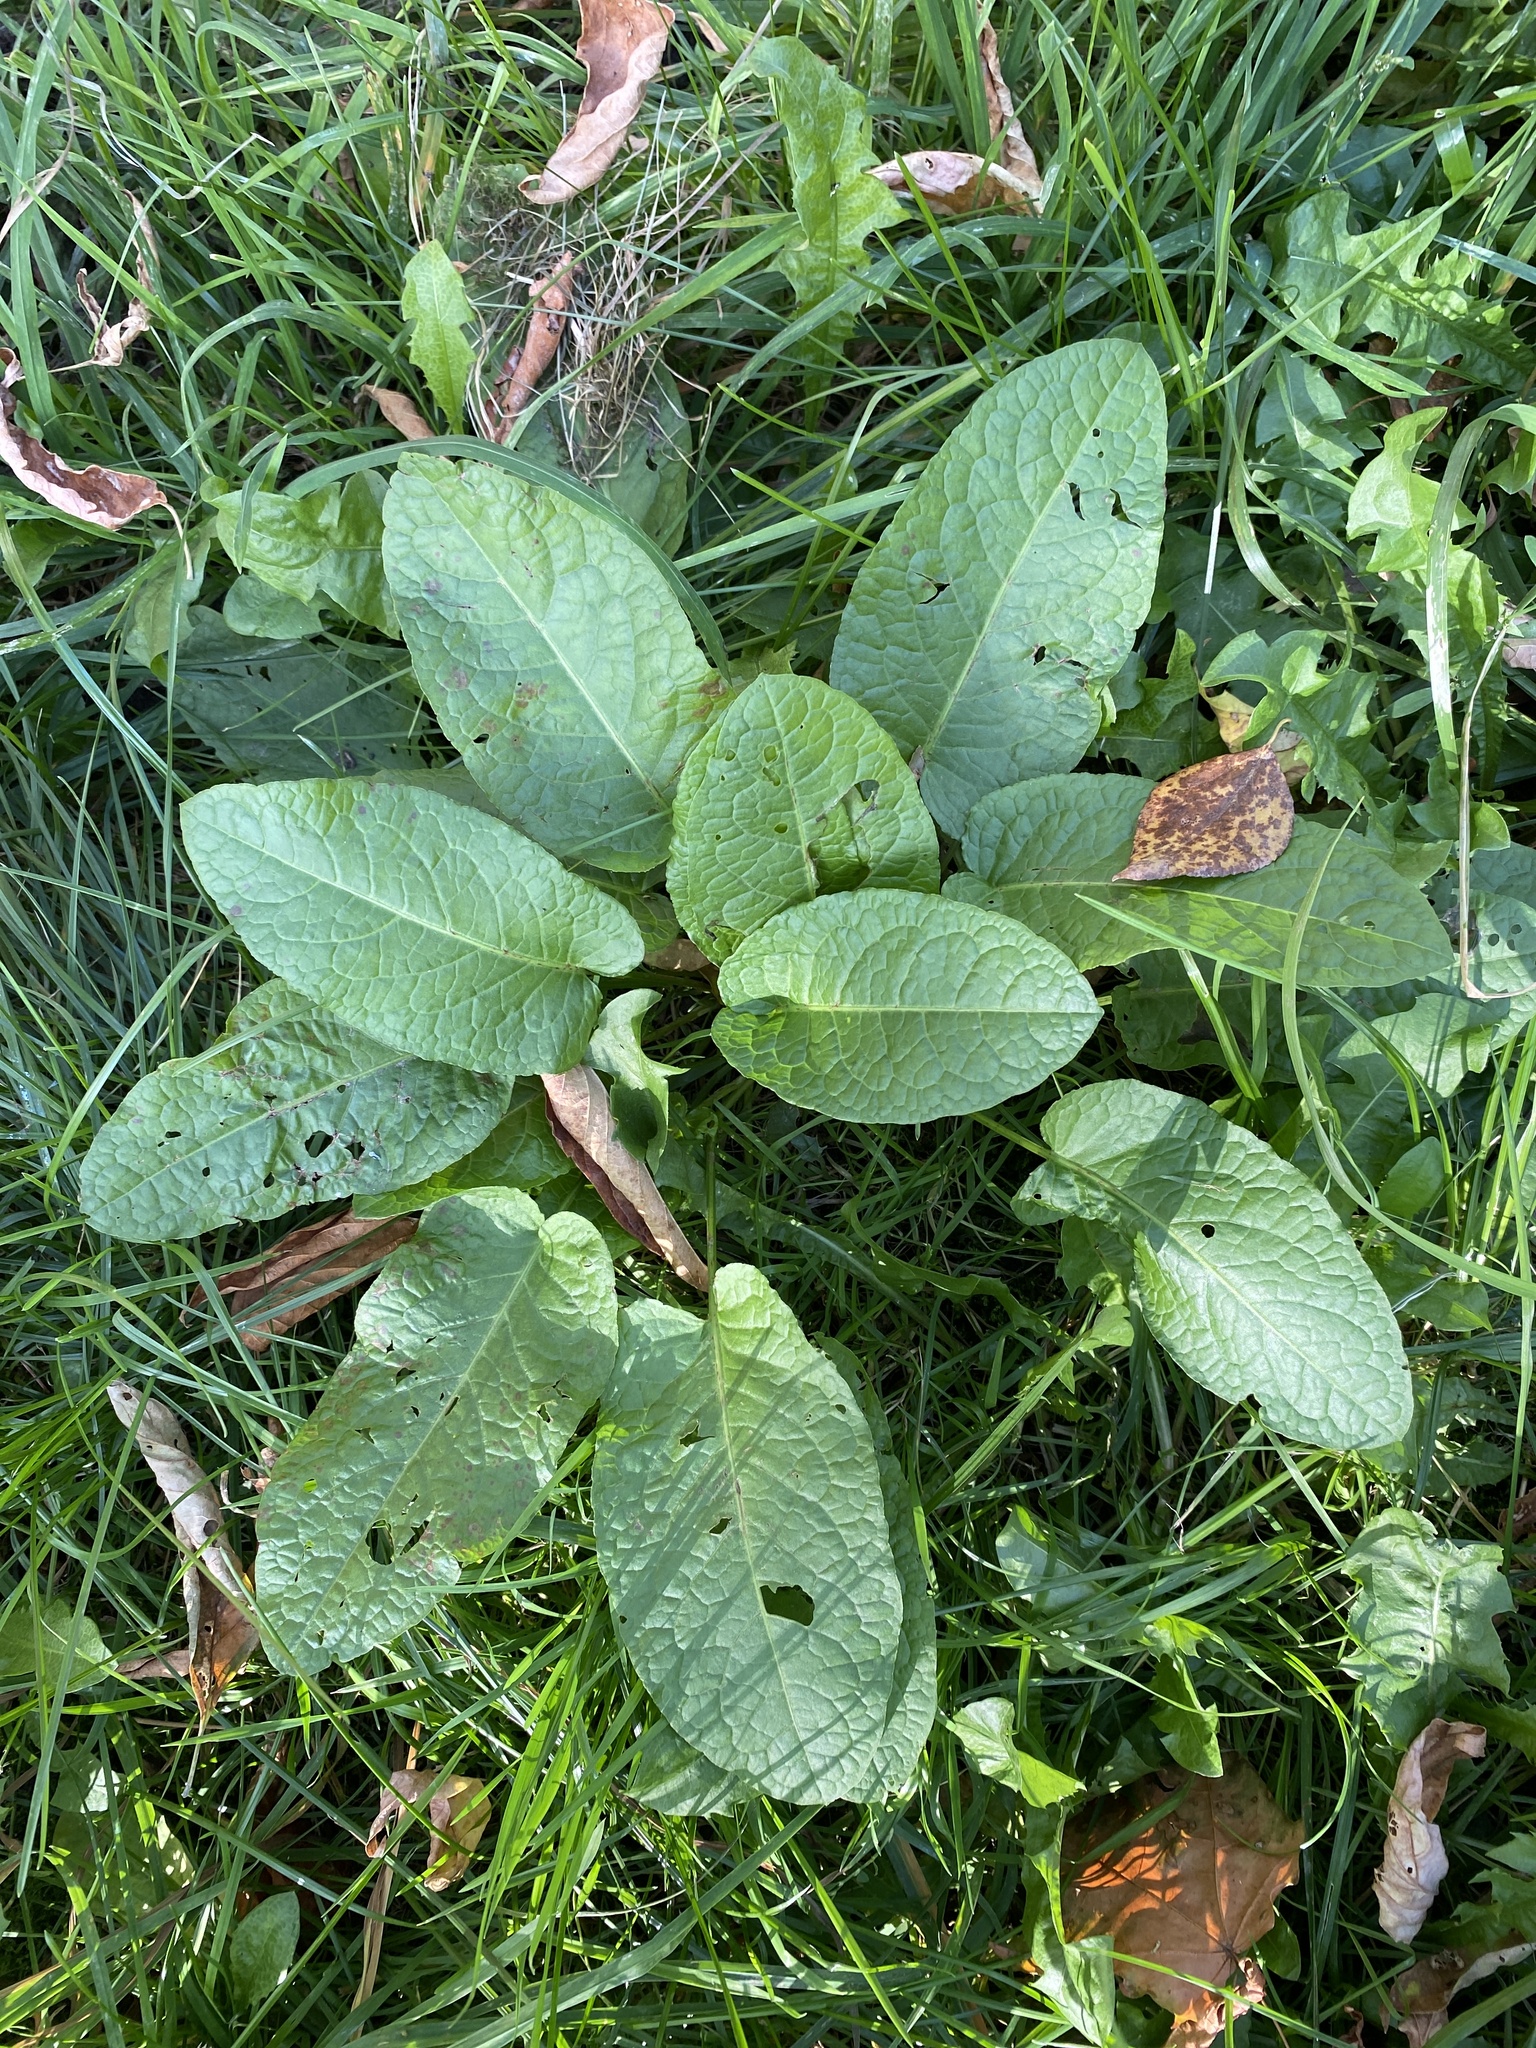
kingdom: Plantae
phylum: Tracheophyta
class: Magnoliopsida
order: Caryophyllales
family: Polygonaceae
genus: Rumex
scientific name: Rumex obtusifolius
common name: Bitter dock
